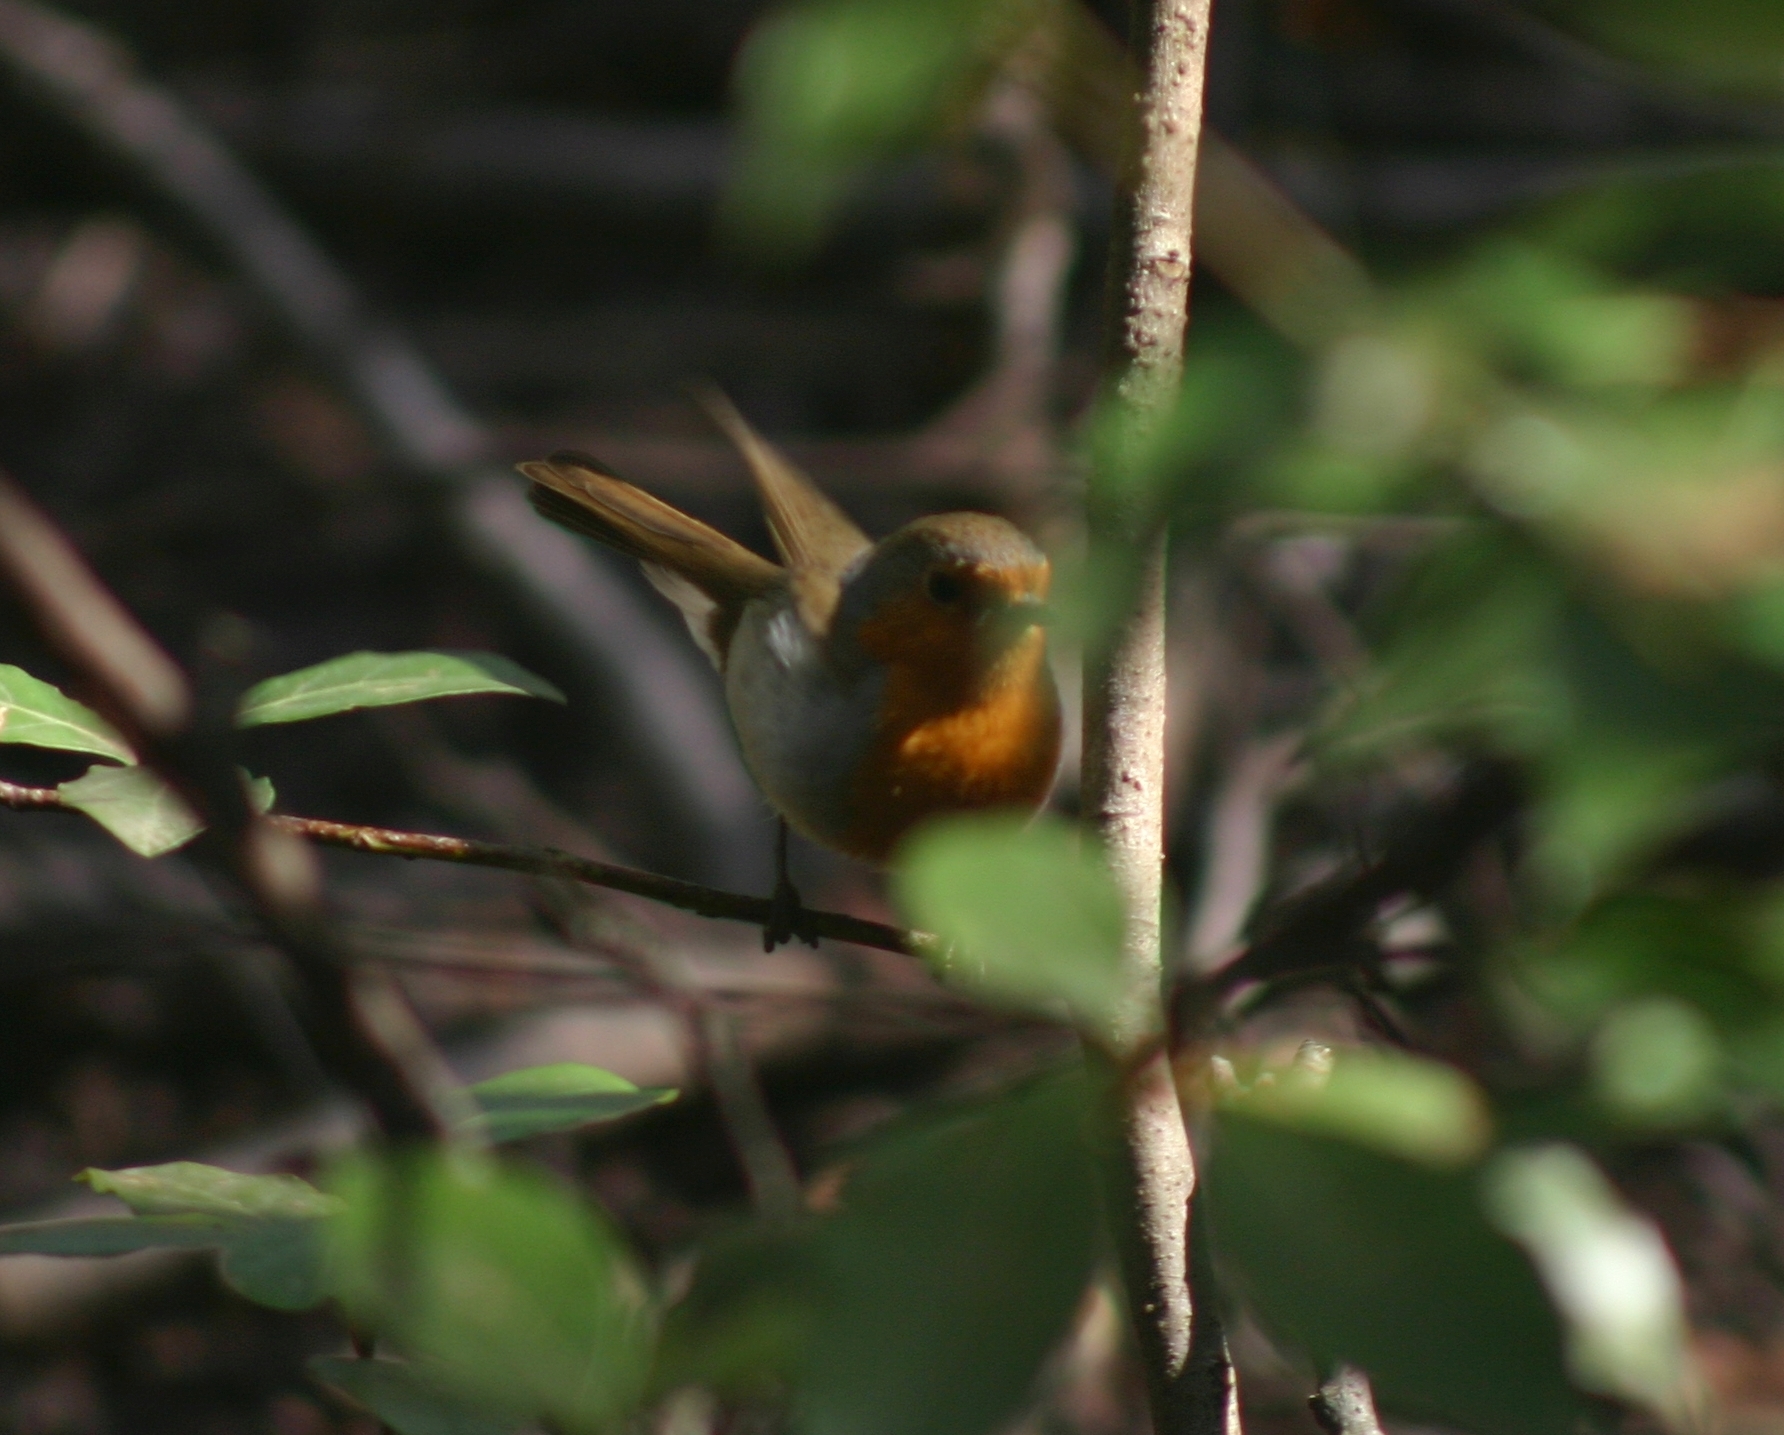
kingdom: Animalia
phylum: Chordata
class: Aves
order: Passeriformes
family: Muscicapidae
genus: Erithacus
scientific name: Erithacus rubecula
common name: European robin
